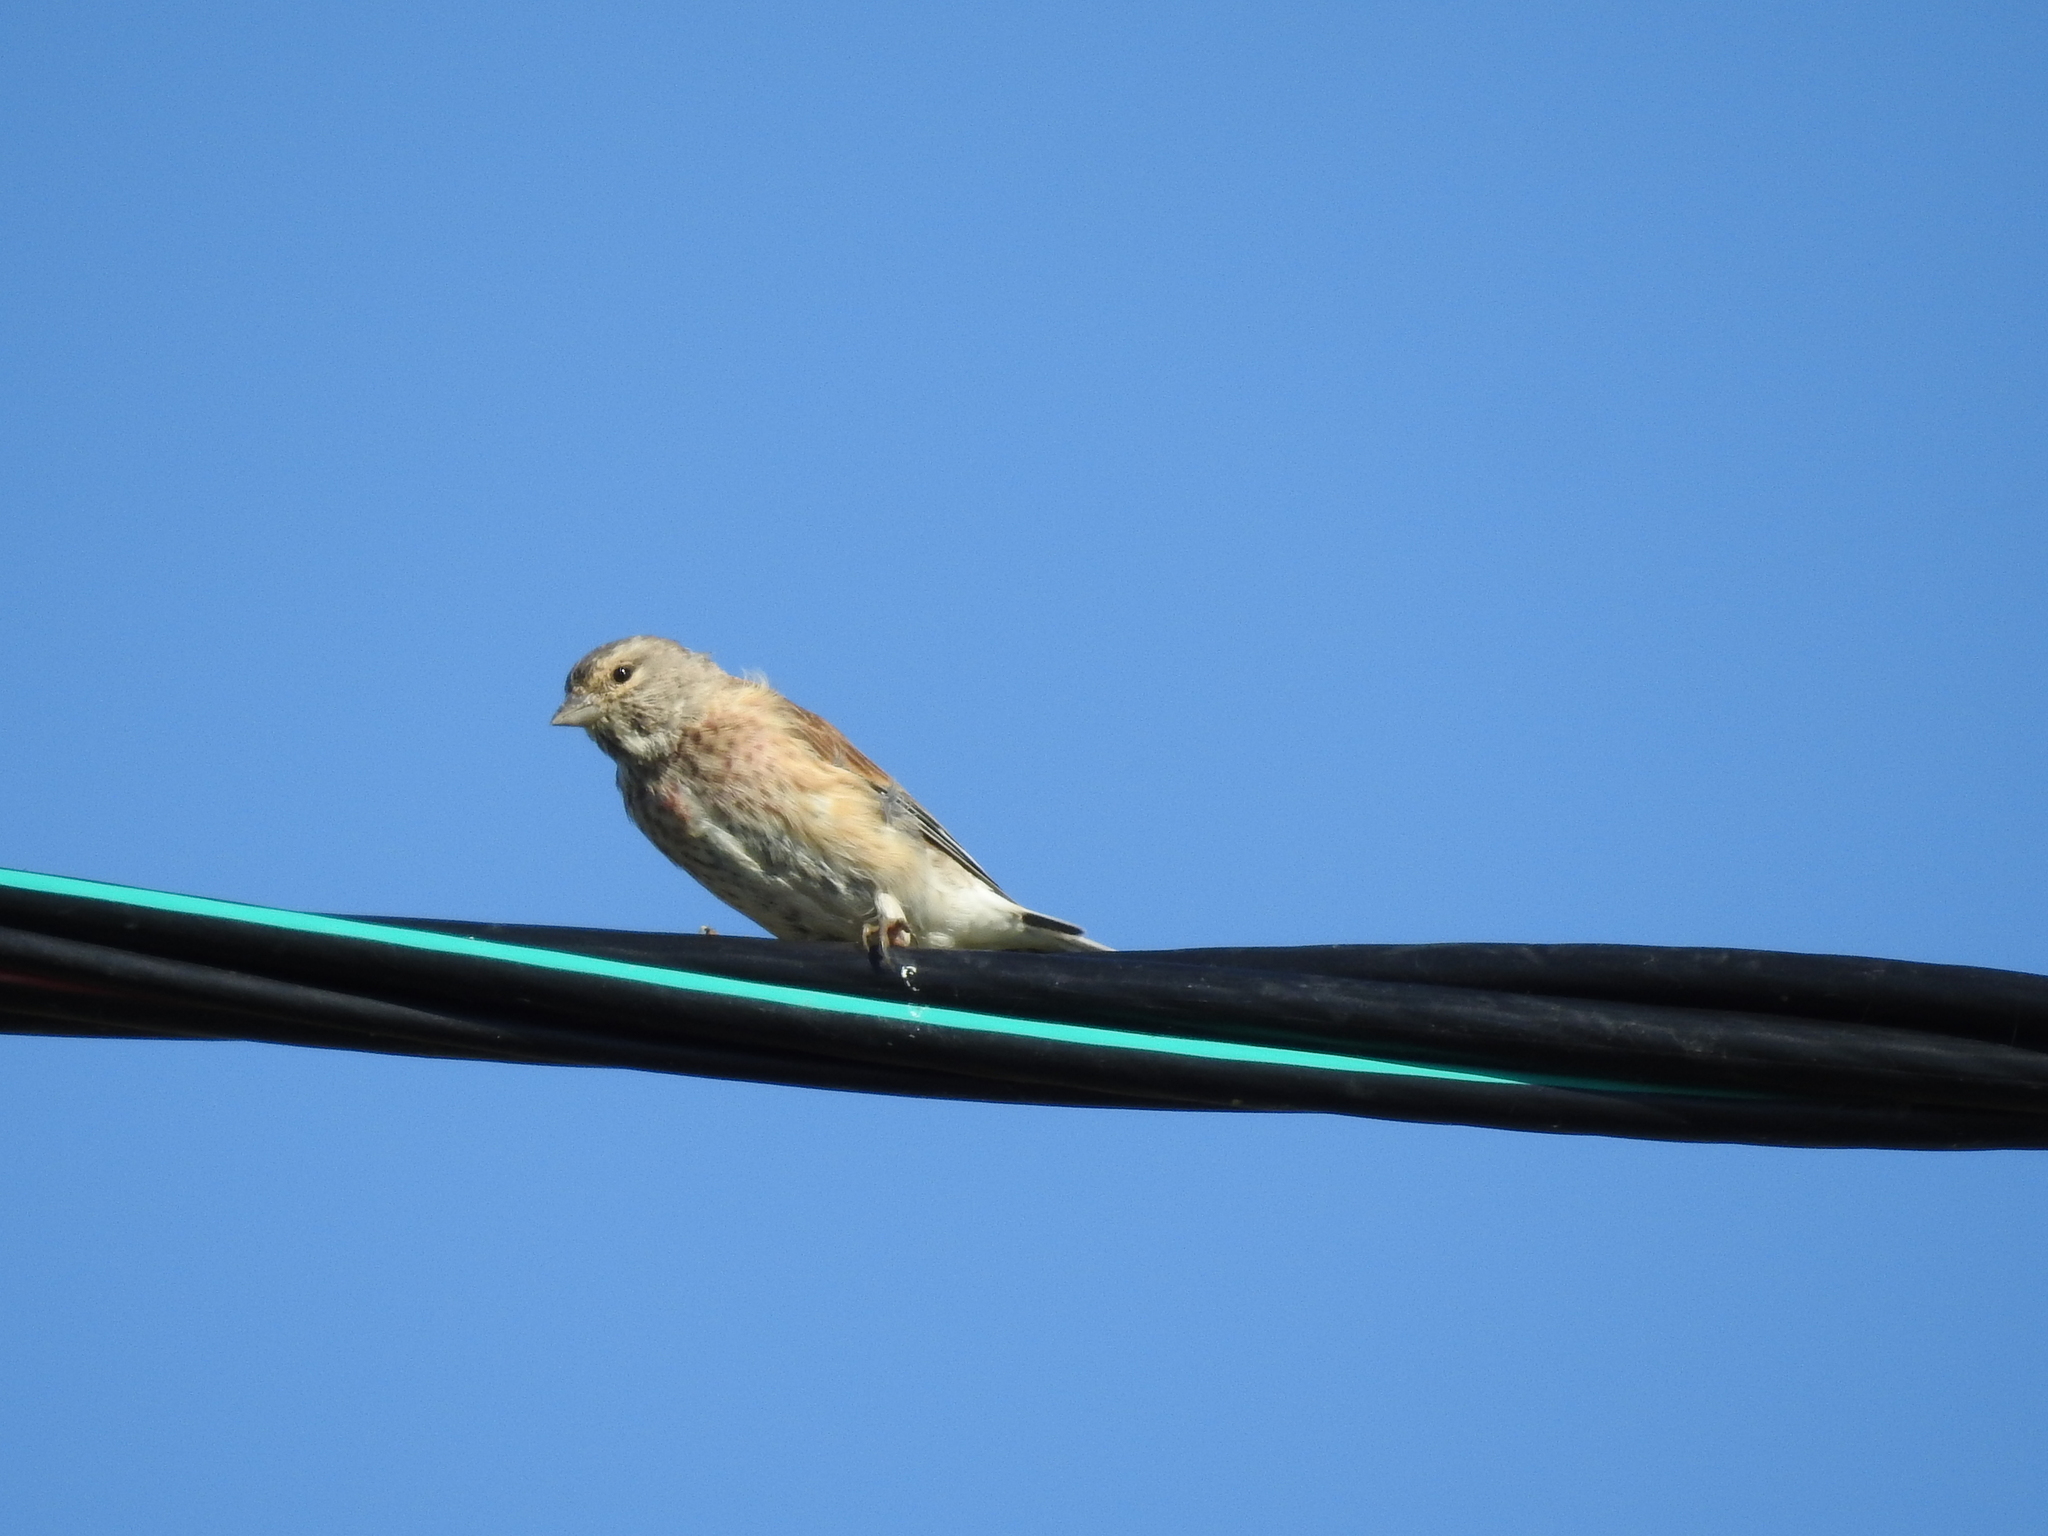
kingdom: Animalia
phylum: Chordata
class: Aves
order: Passeriformes
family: Fringillidae
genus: Linaria
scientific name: Linaria cannabina
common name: Common linnet
